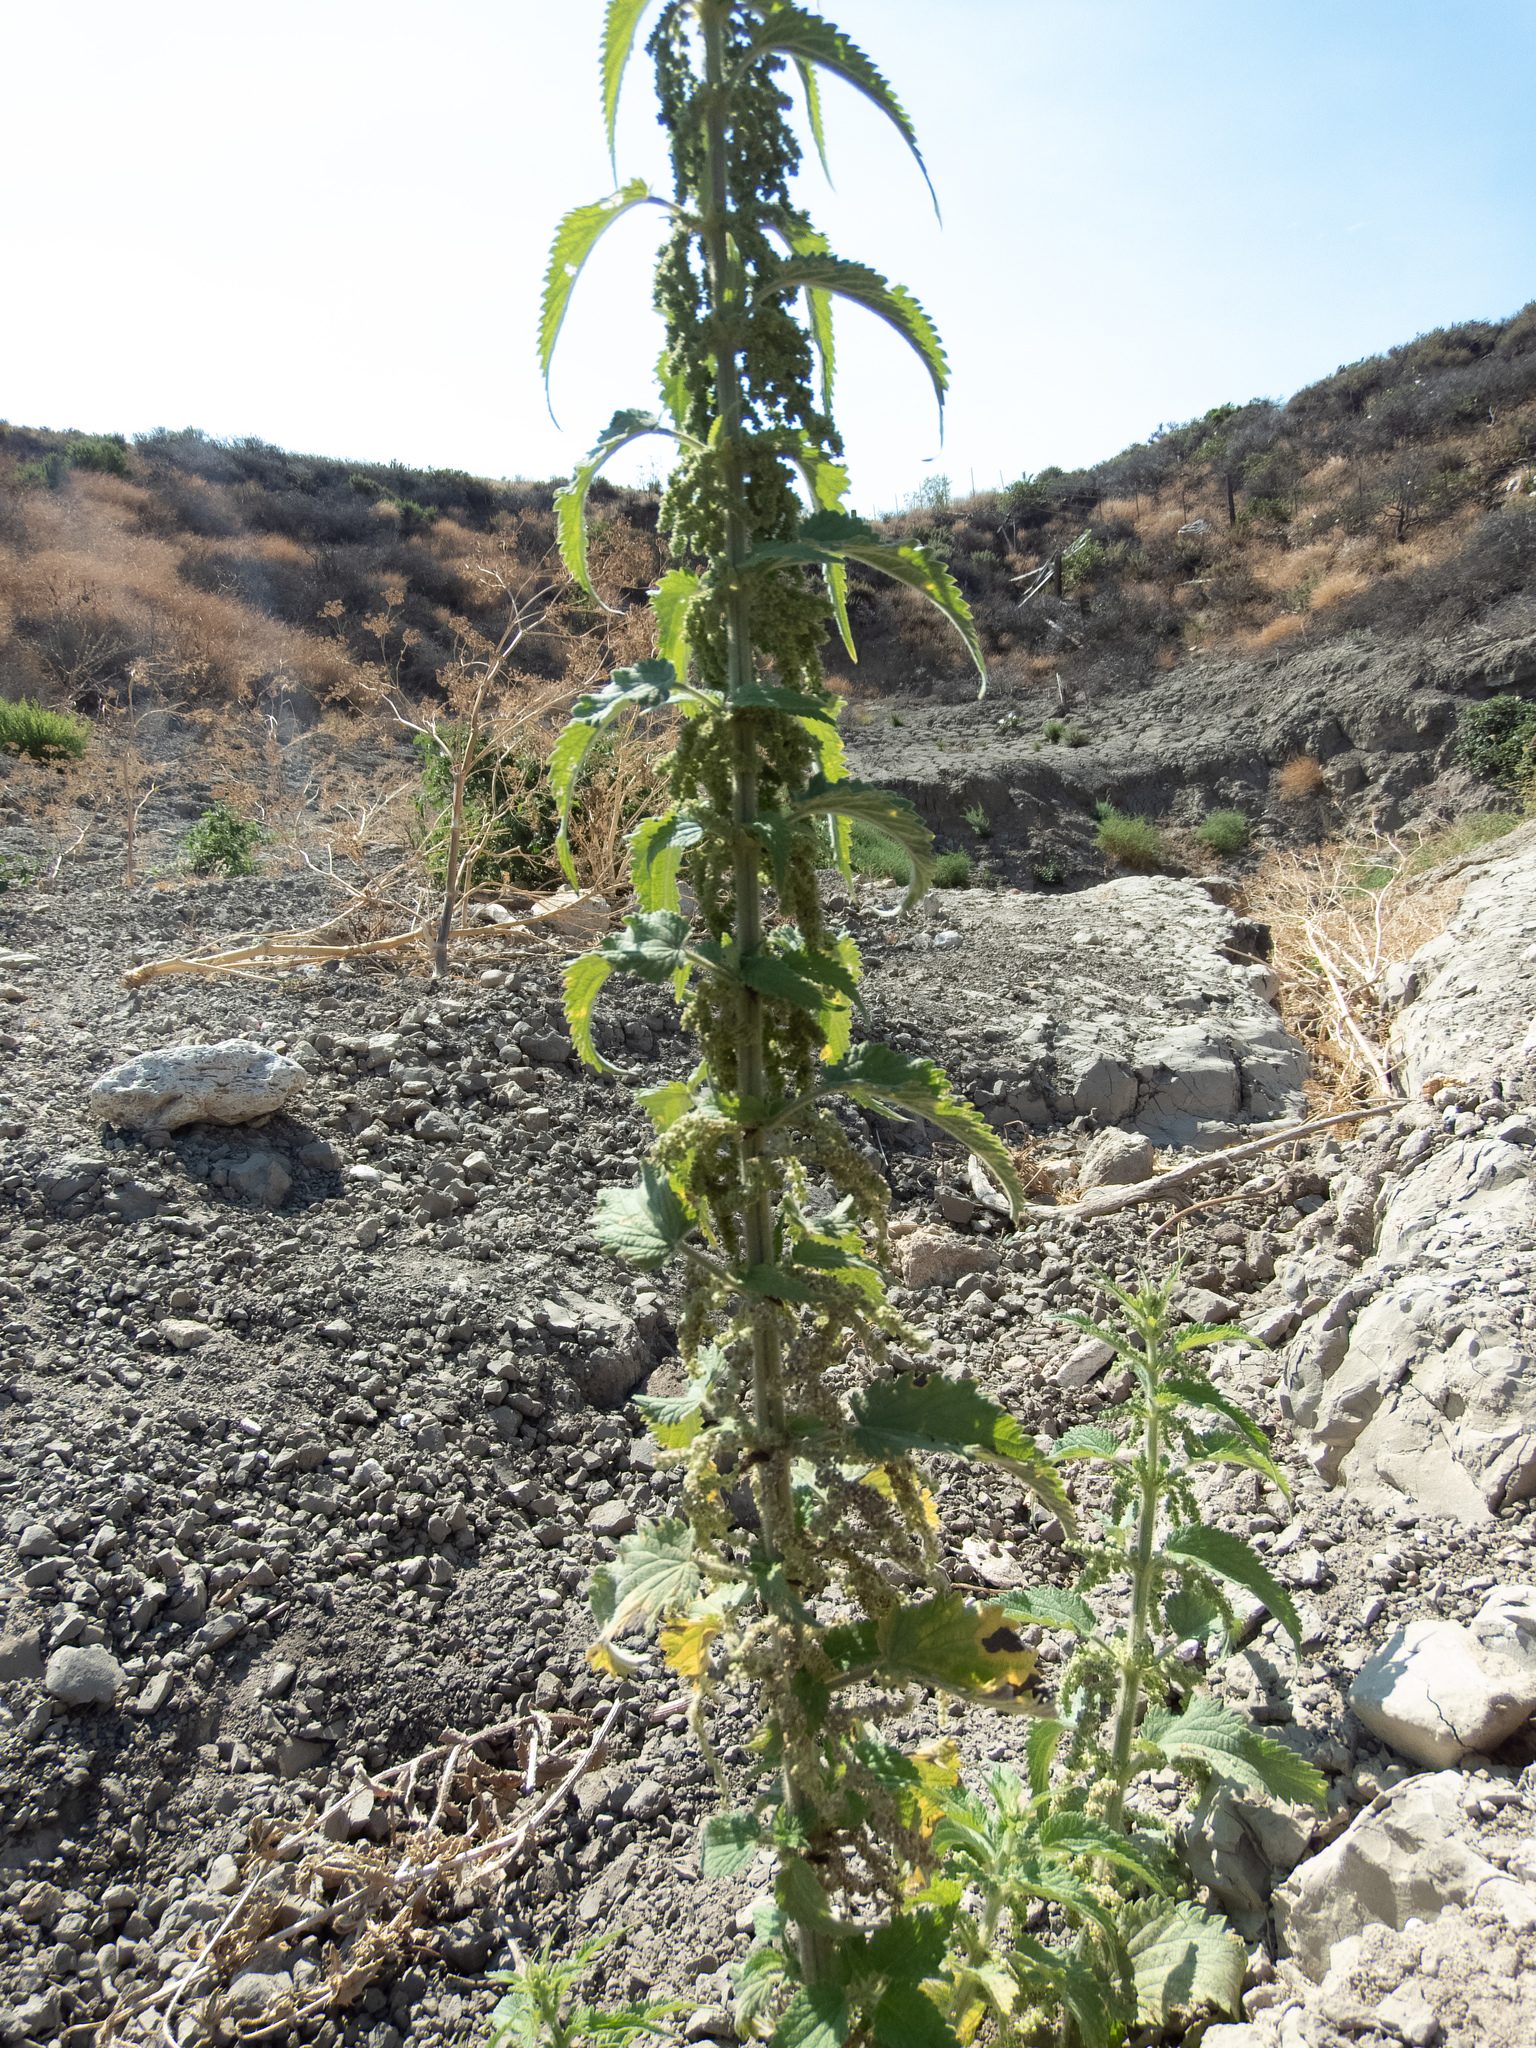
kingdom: Plantae
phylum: Tracheophyta
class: Magnoliopsida
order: Rosales
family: Urticaceae
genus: Urtica
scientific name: Urtica dioica
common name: Common nettle
